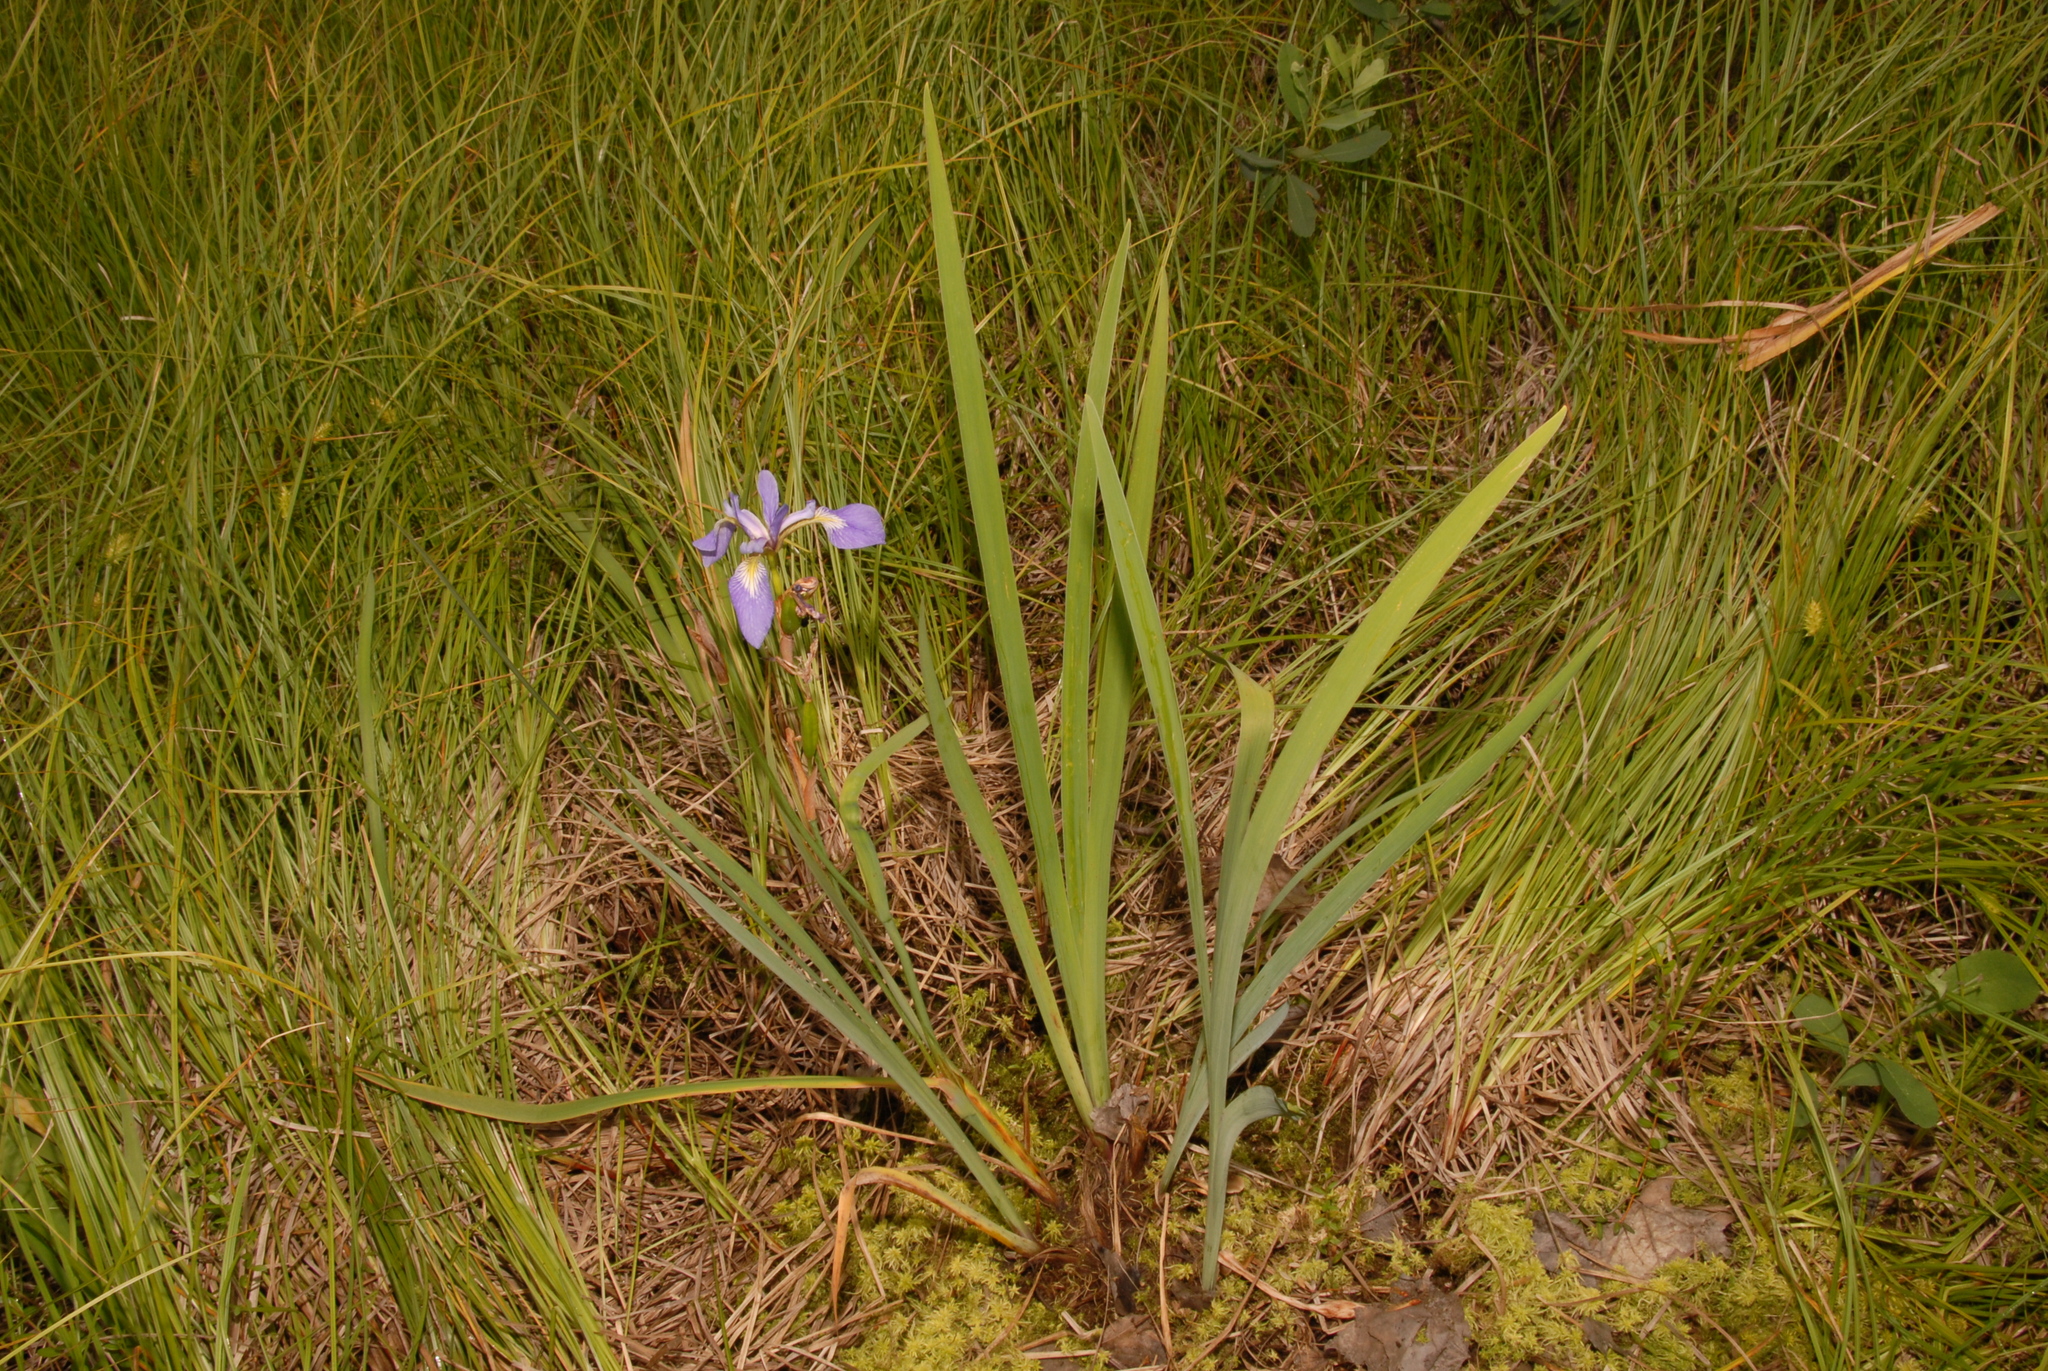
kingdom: Plantae
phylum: Tracheophyta
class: Liliopsida
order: Asparagales
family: Iridaceae
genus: Iris
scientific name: Iris versicolor
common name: Purple iris
